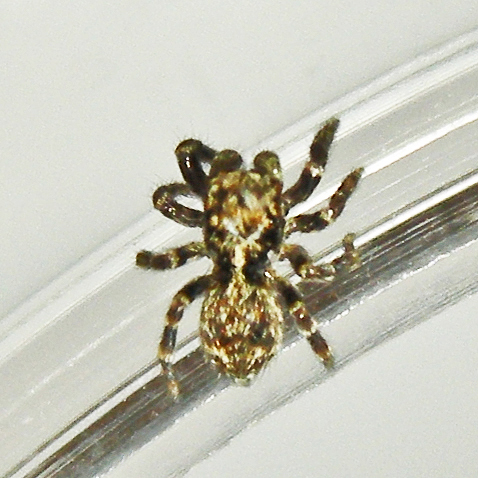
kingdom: Animalia
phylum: Arthropoda
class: Arachnida
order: Araneae
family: Salticidae
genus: Pseudeuophrys
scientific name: Pseudeuophrys erratica
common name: Jumping spider
